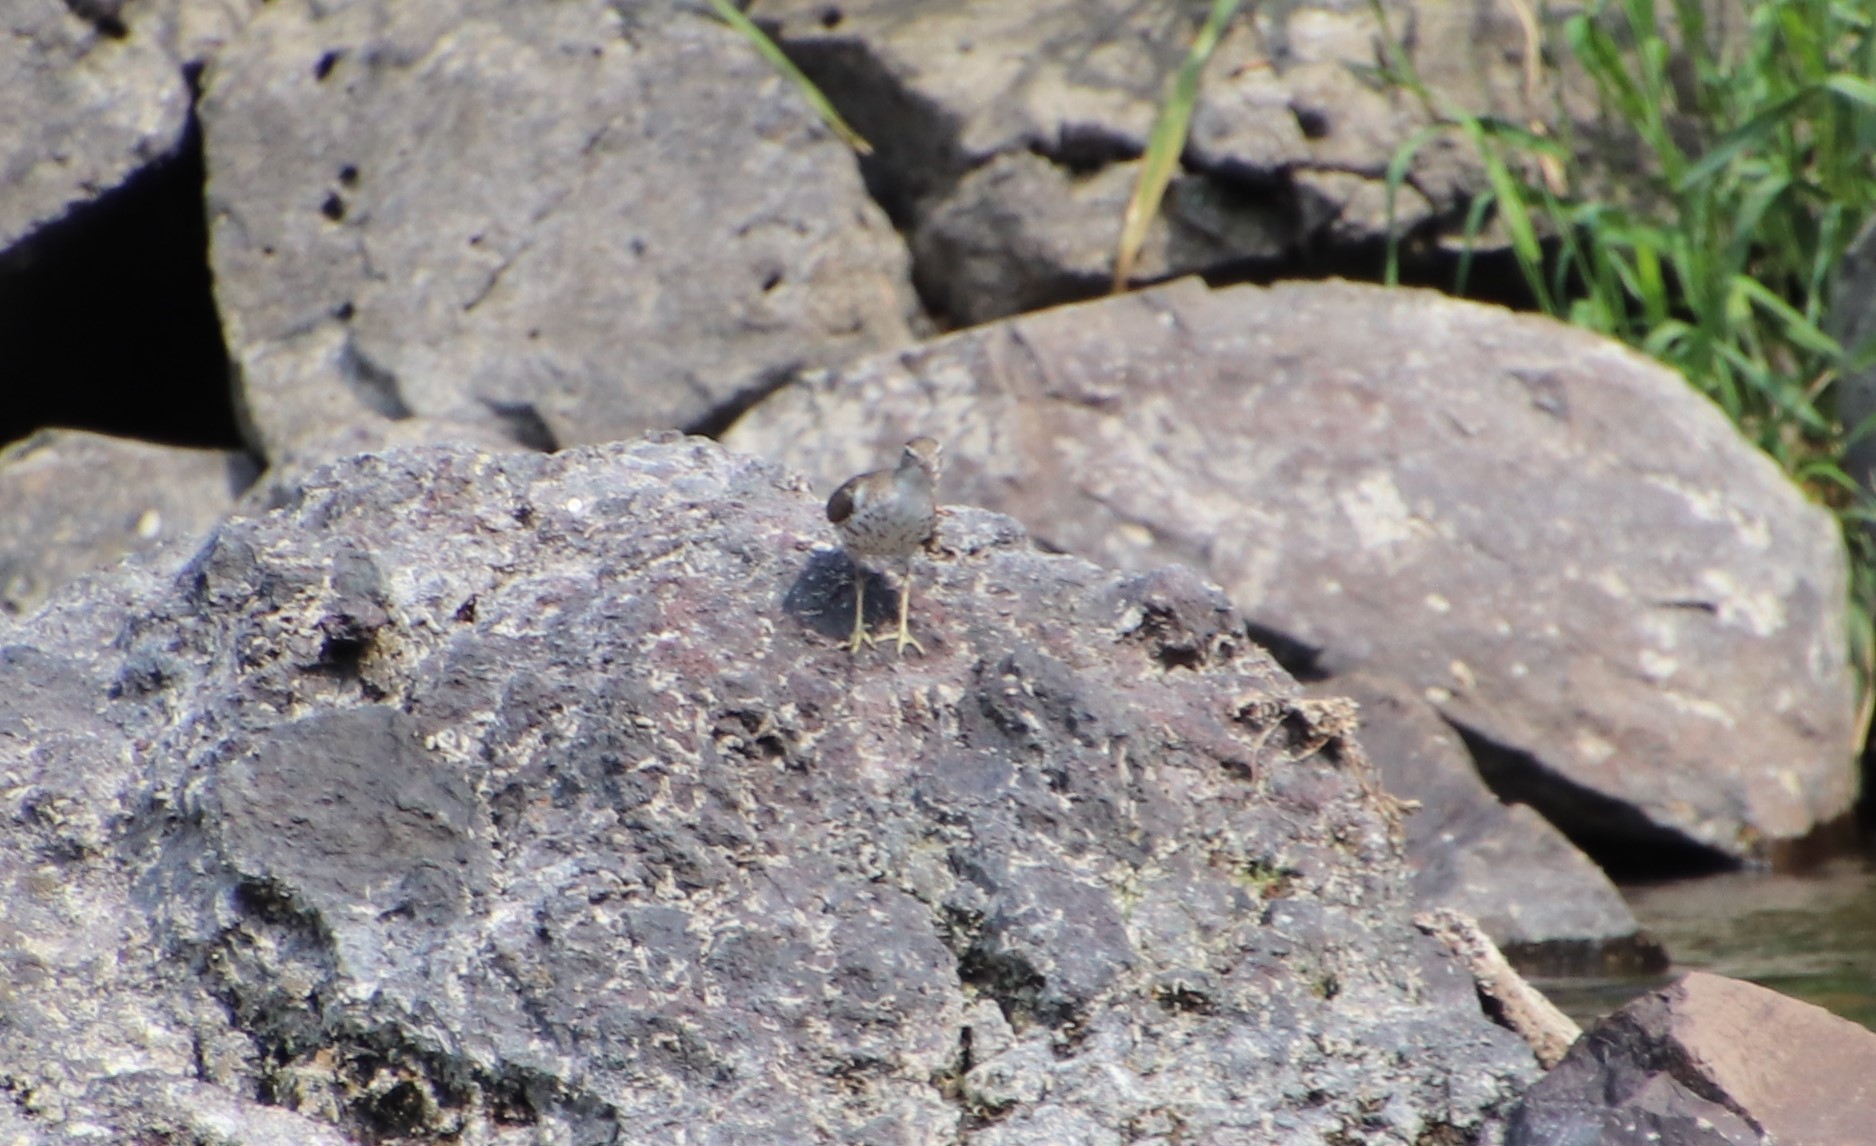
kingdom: Animalia
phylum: Chordata
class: Aves
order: Charadriiformes
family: Scolopacidae
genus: Actitis
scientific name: Actitis macularius
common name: Spotted sandpiper
